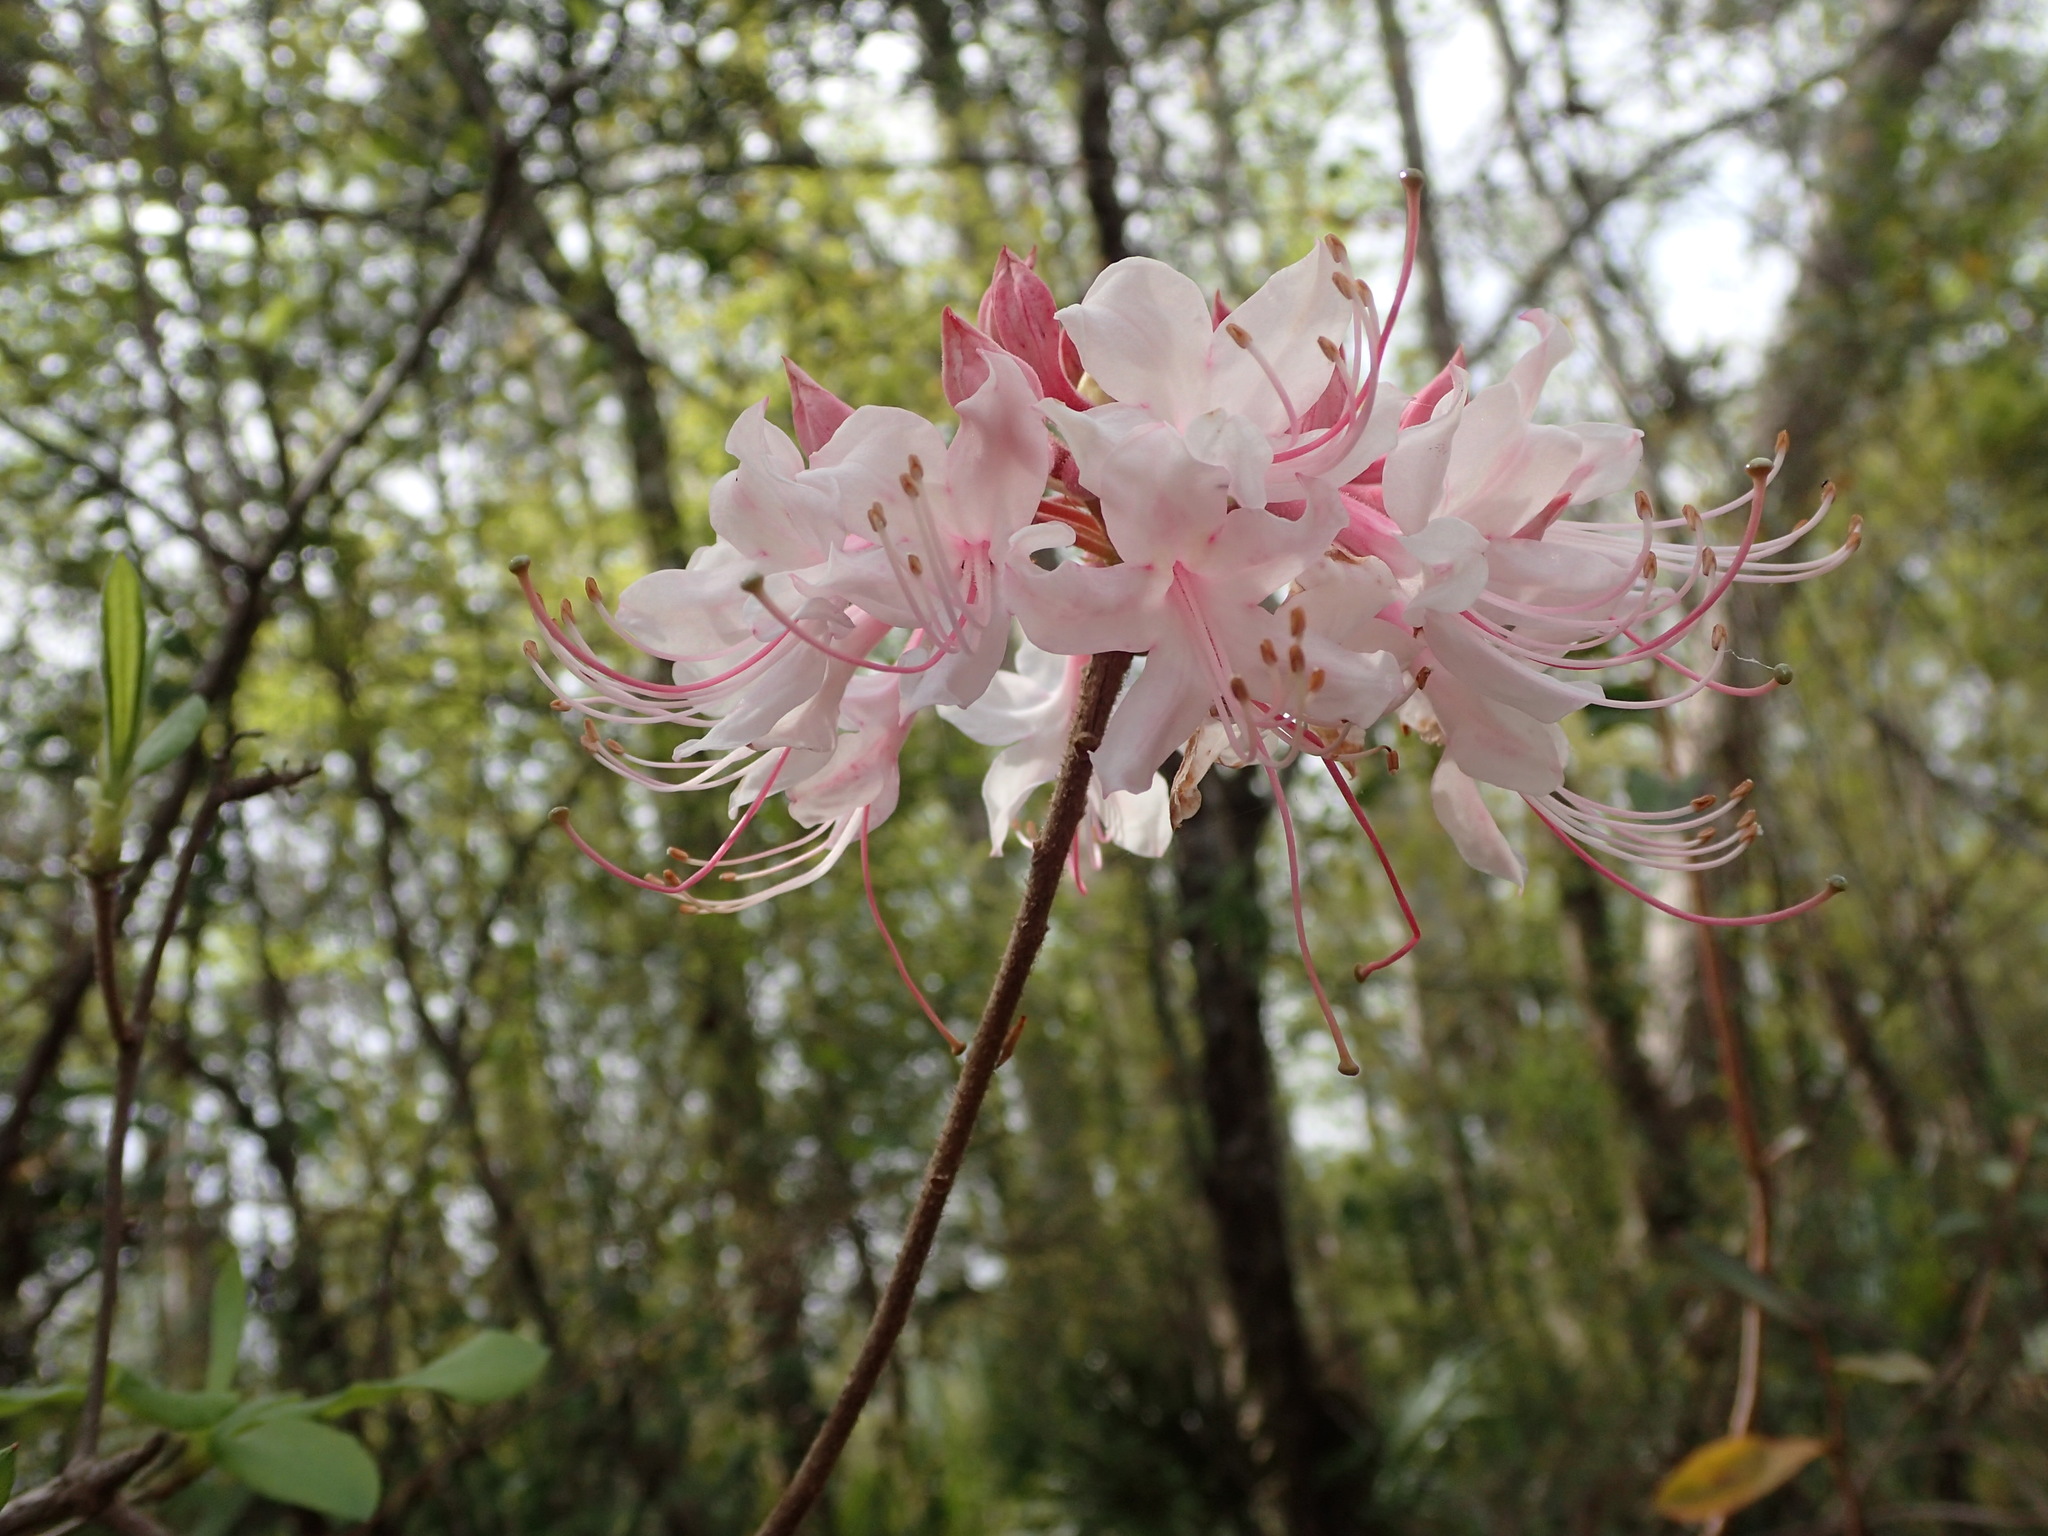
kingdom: Plantae
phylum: Tracheophyta
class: Magnoliopsida
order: Ericales
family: Ericaceae
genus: Rhododendron
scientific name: Rhododendron canescens
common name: Mountain azalea
